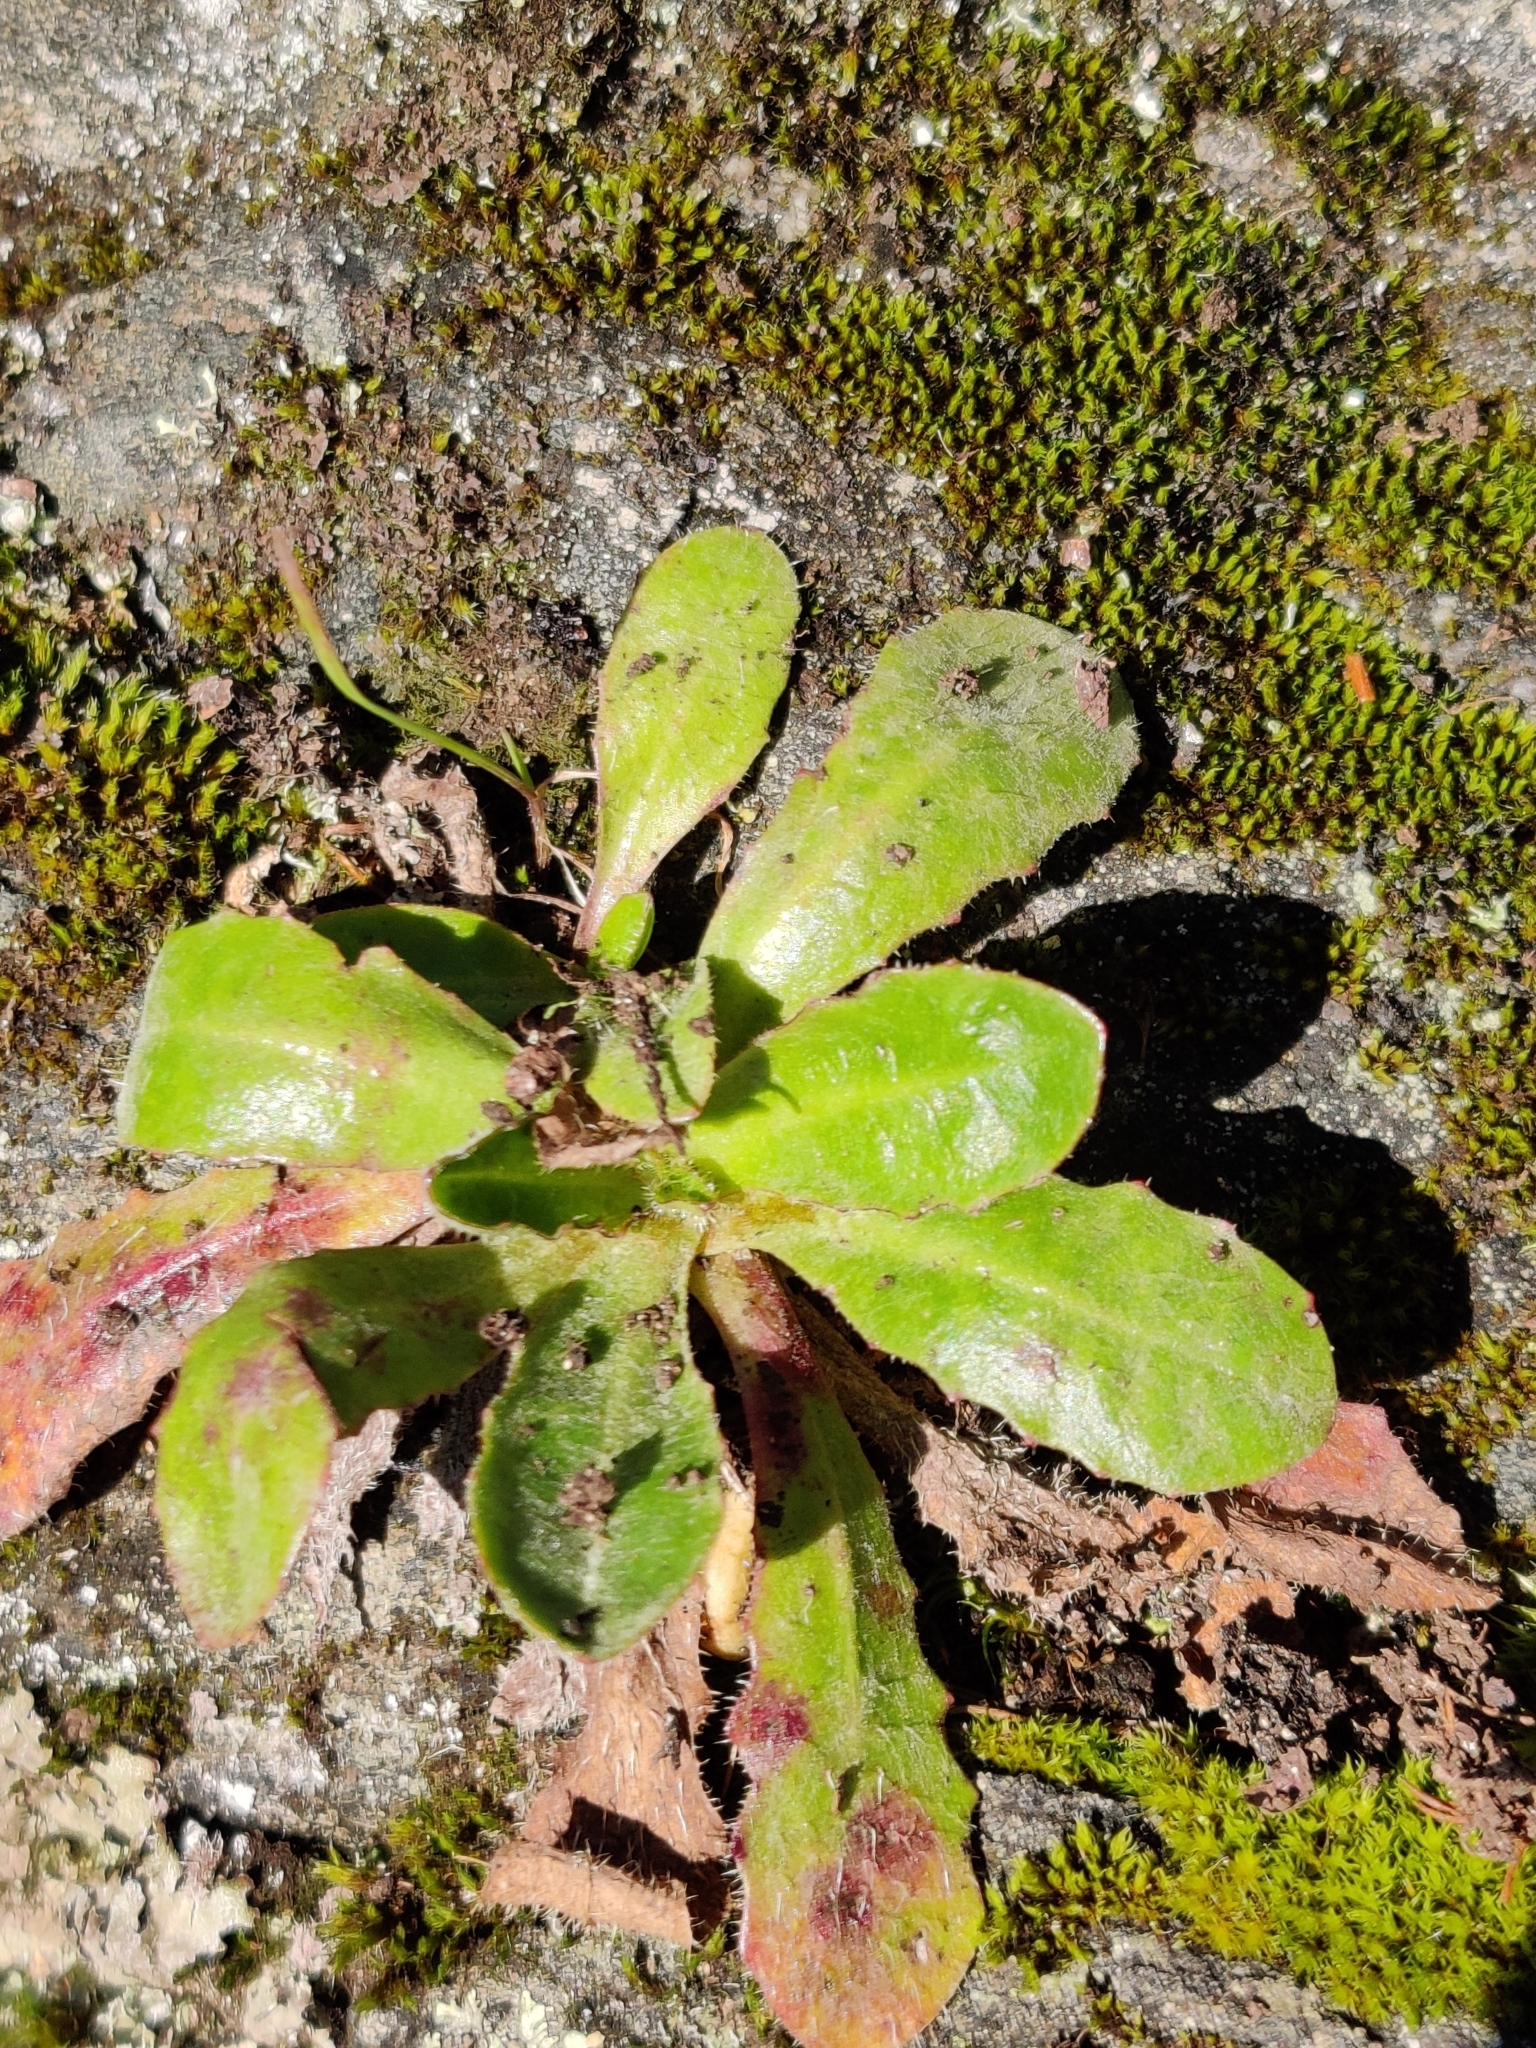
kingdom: Plantae
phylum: Tracheophyta
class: Magnoliopsida
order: Asterales
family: Asteraceae
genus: Hypochaeris
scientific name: Hypochaeris radicata
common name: Flatweed
